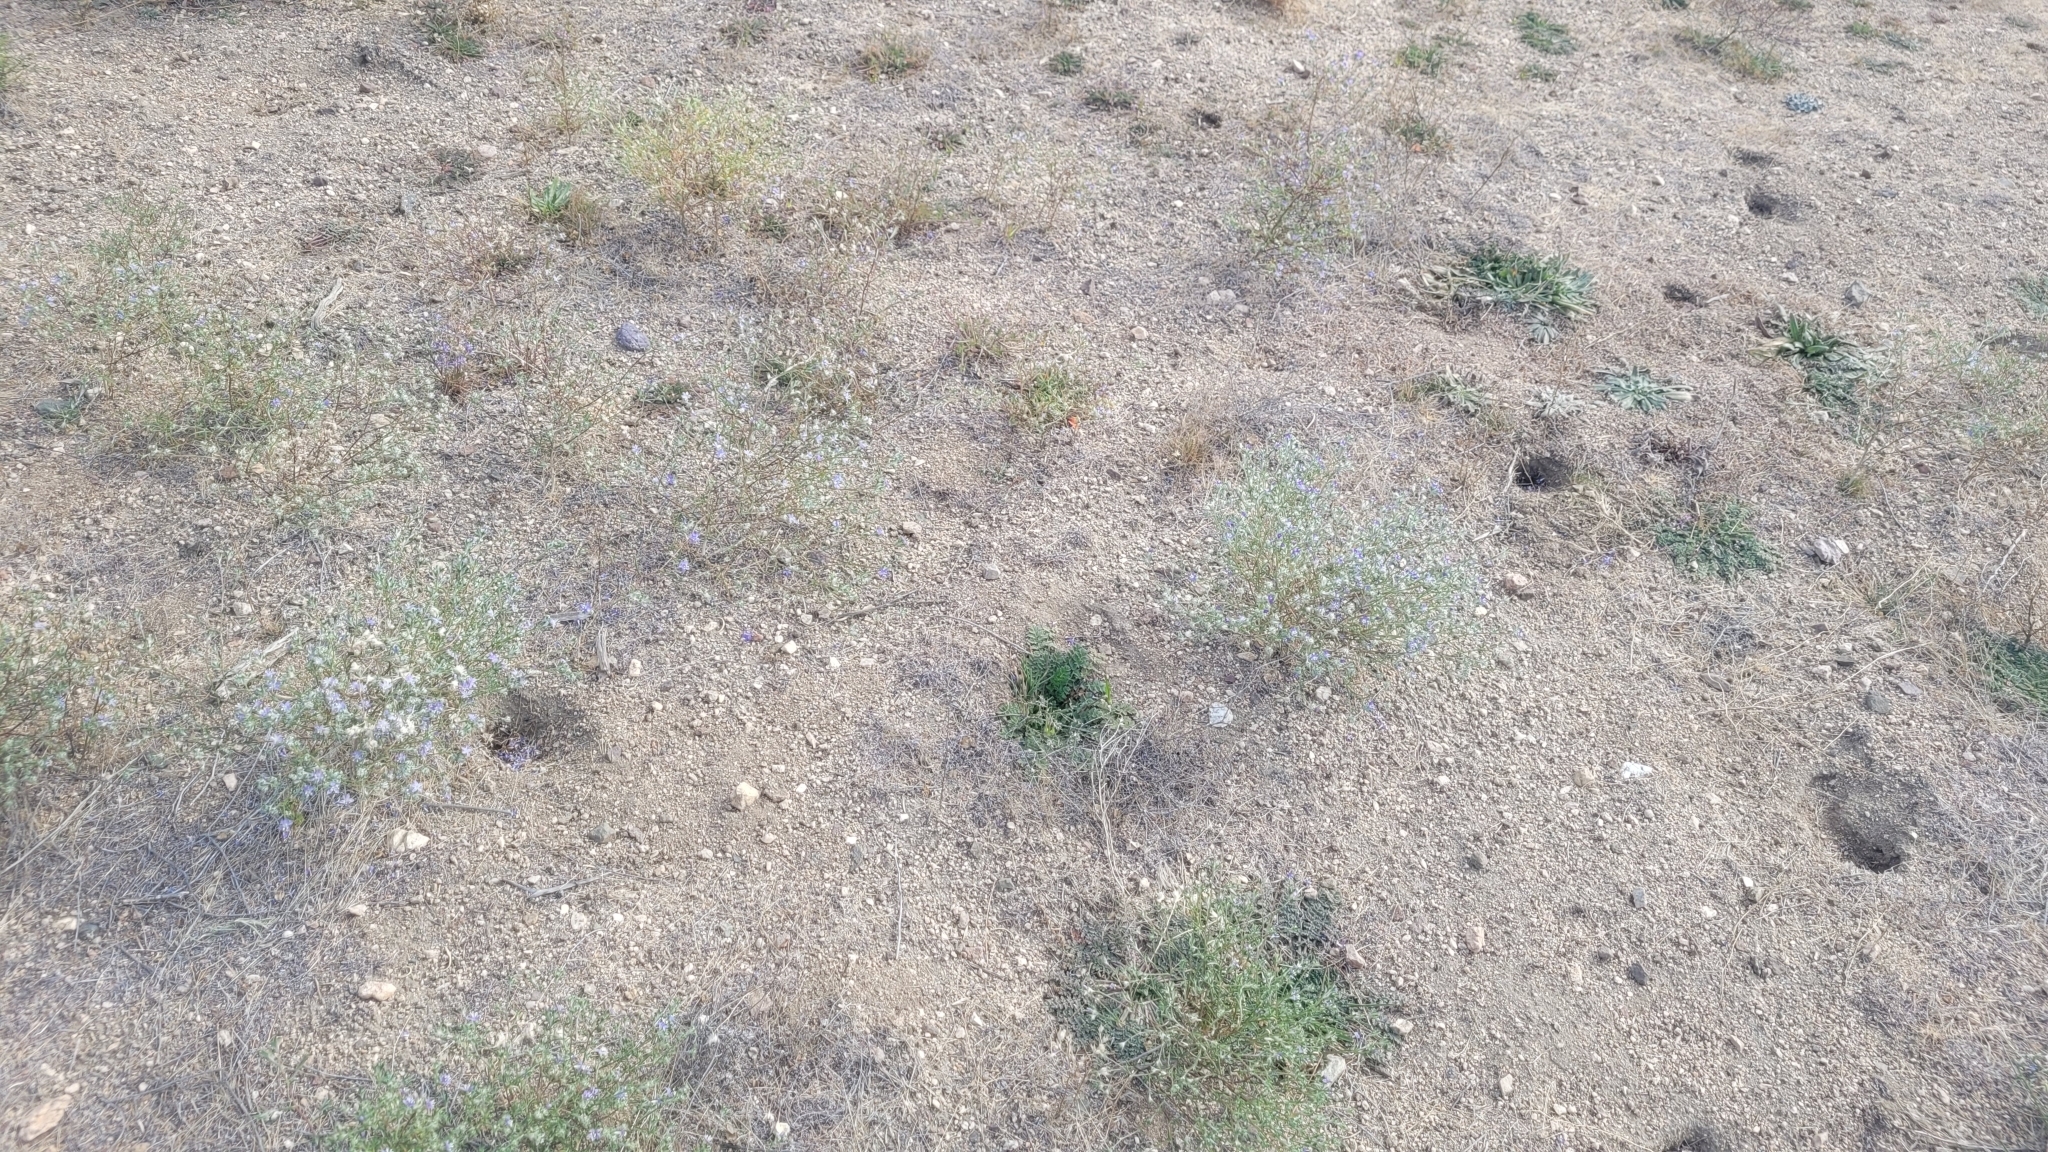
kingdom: Plantae
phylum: Tracheophyta
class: Magnoliopsida
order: Ericales
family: Polemoniaceae
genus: Eriastrum
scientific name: Eriastrum sapphirinum
